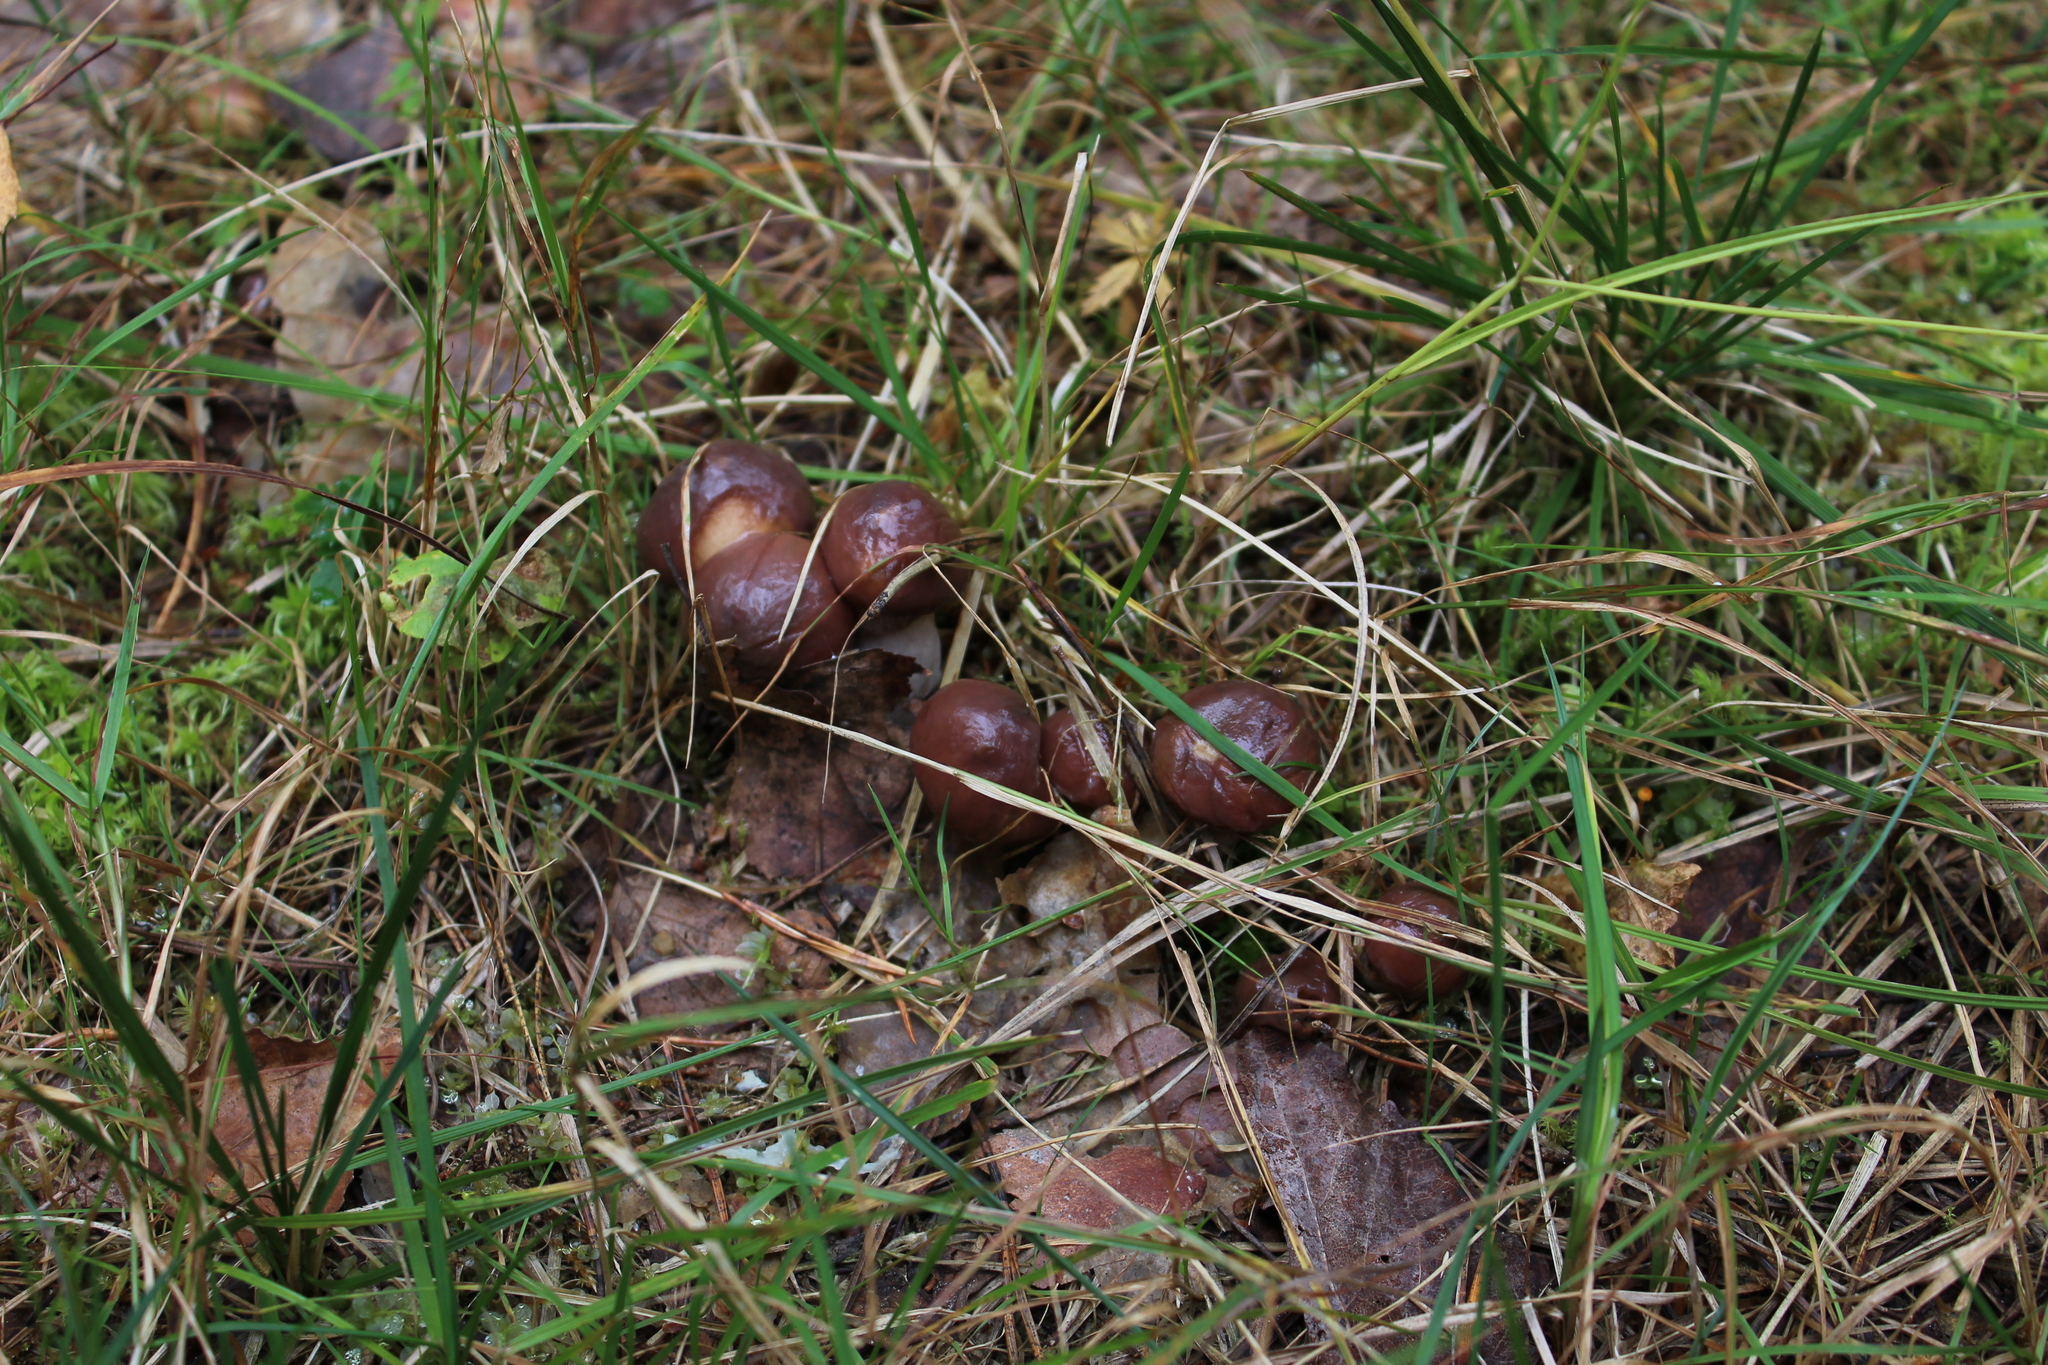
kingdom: Fungi
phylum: Basidiomycota
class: Agaricomycetes
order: Boletales
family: Suillaceae
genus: Suillus
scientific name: Suillus luteus
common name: Slippery jack
